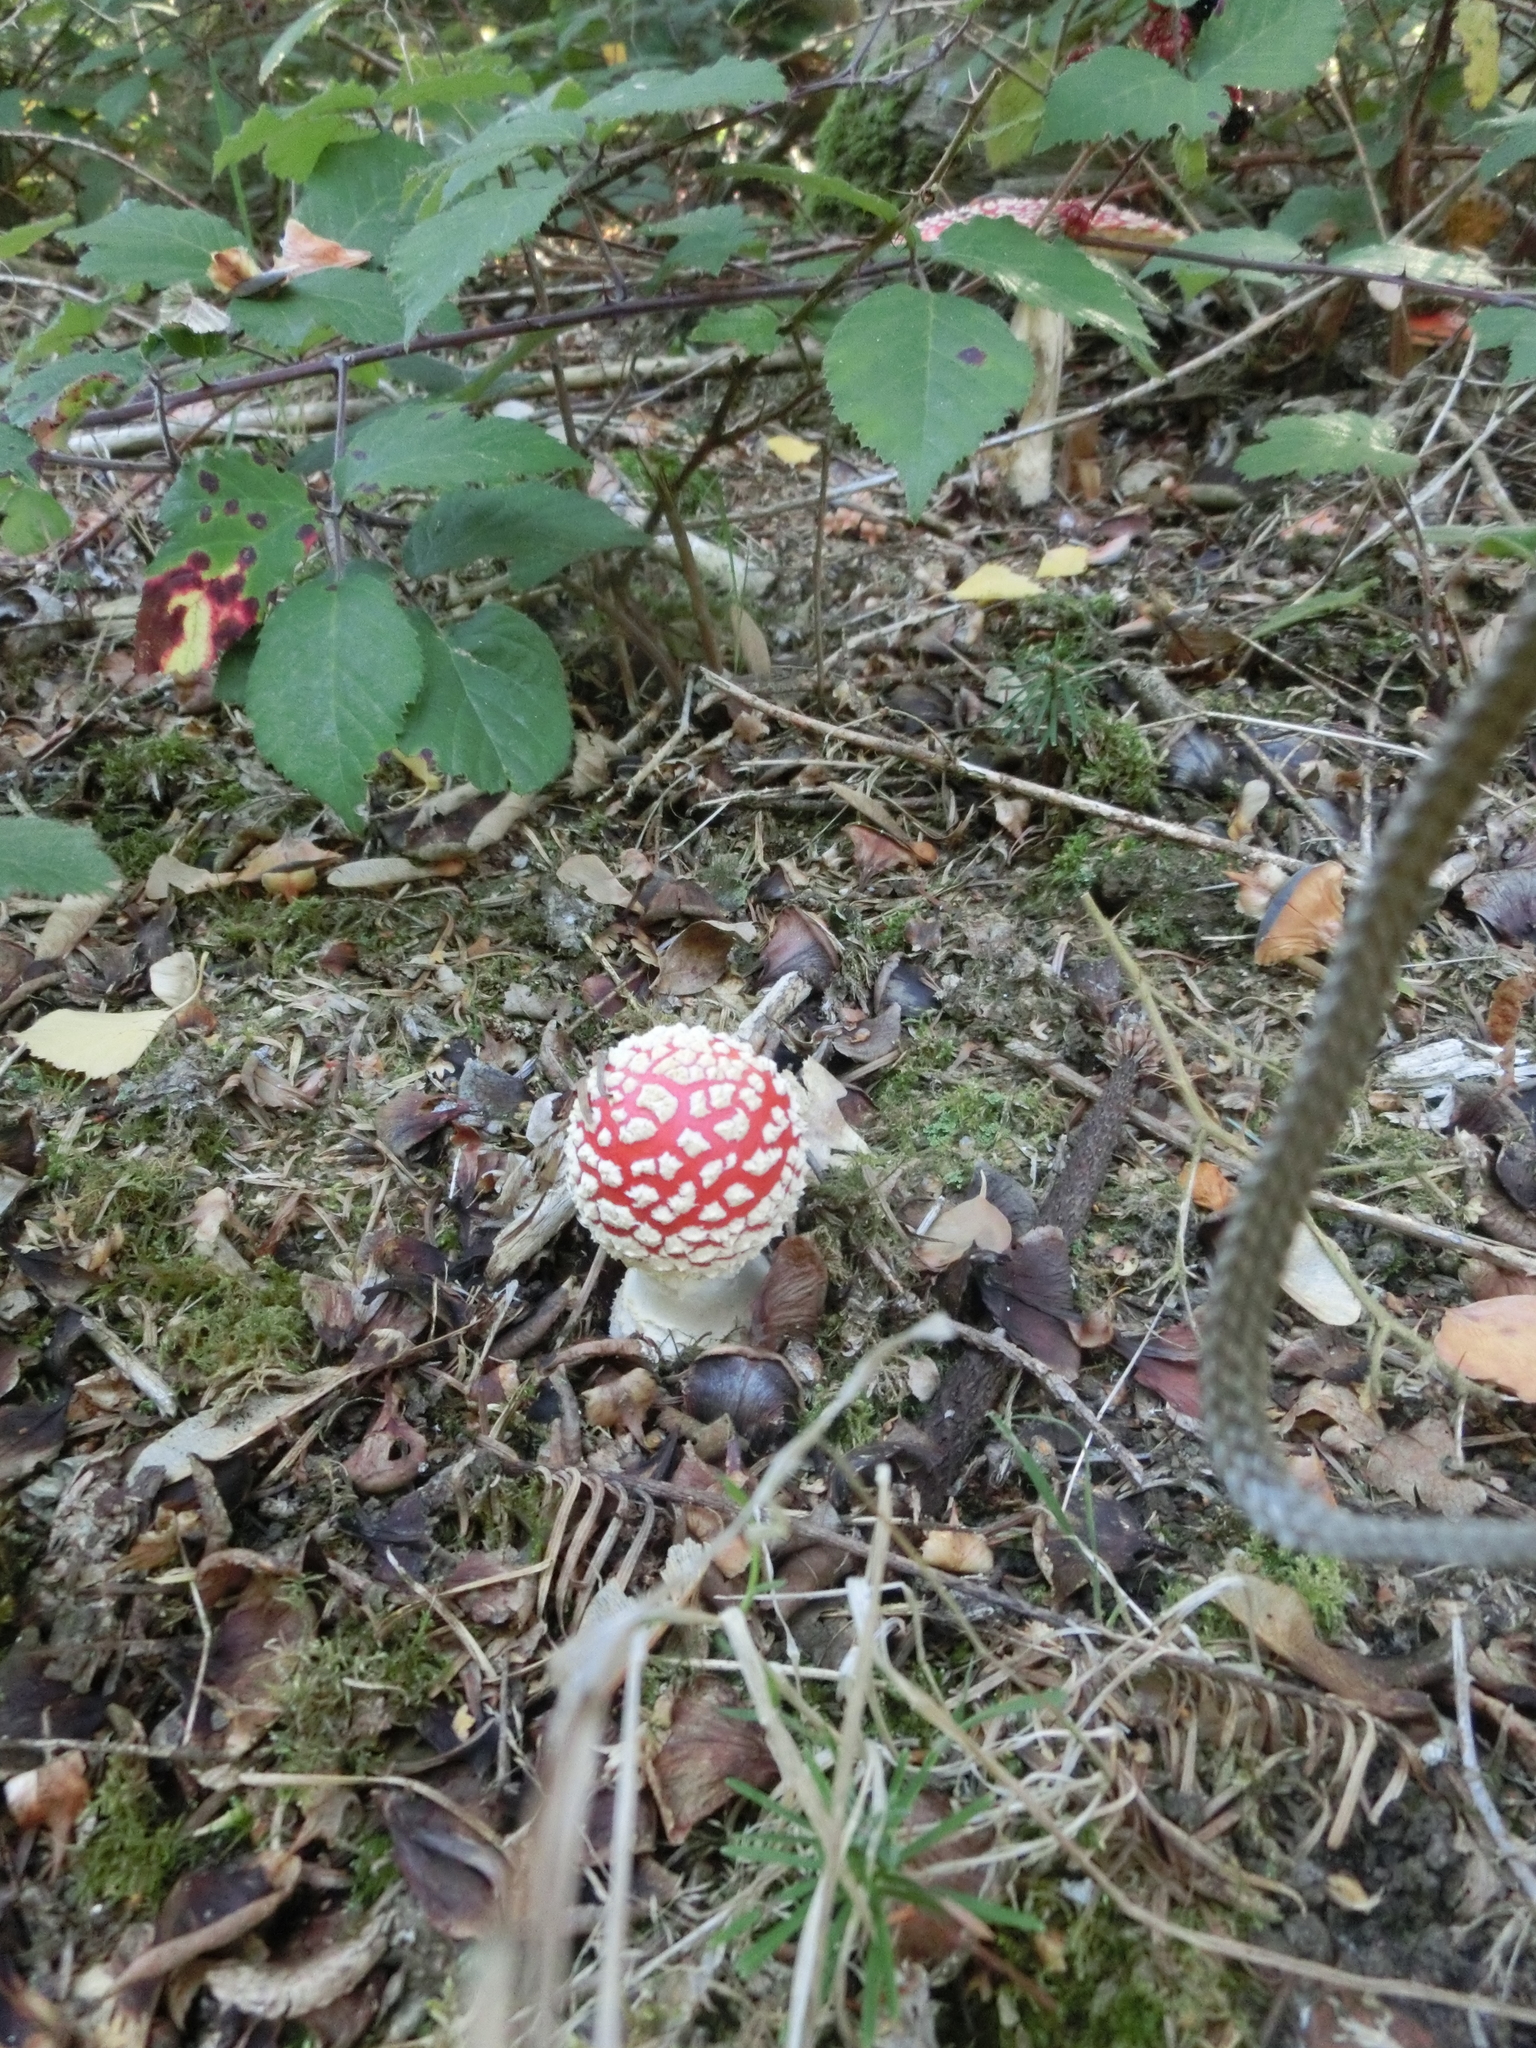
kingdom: Fungi
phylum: Basidiomycota
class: Agaricomycetes
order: Agaricales
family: Amanitaceae
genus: Amanita
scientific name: Amanita muscaria
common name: Fly agaric
